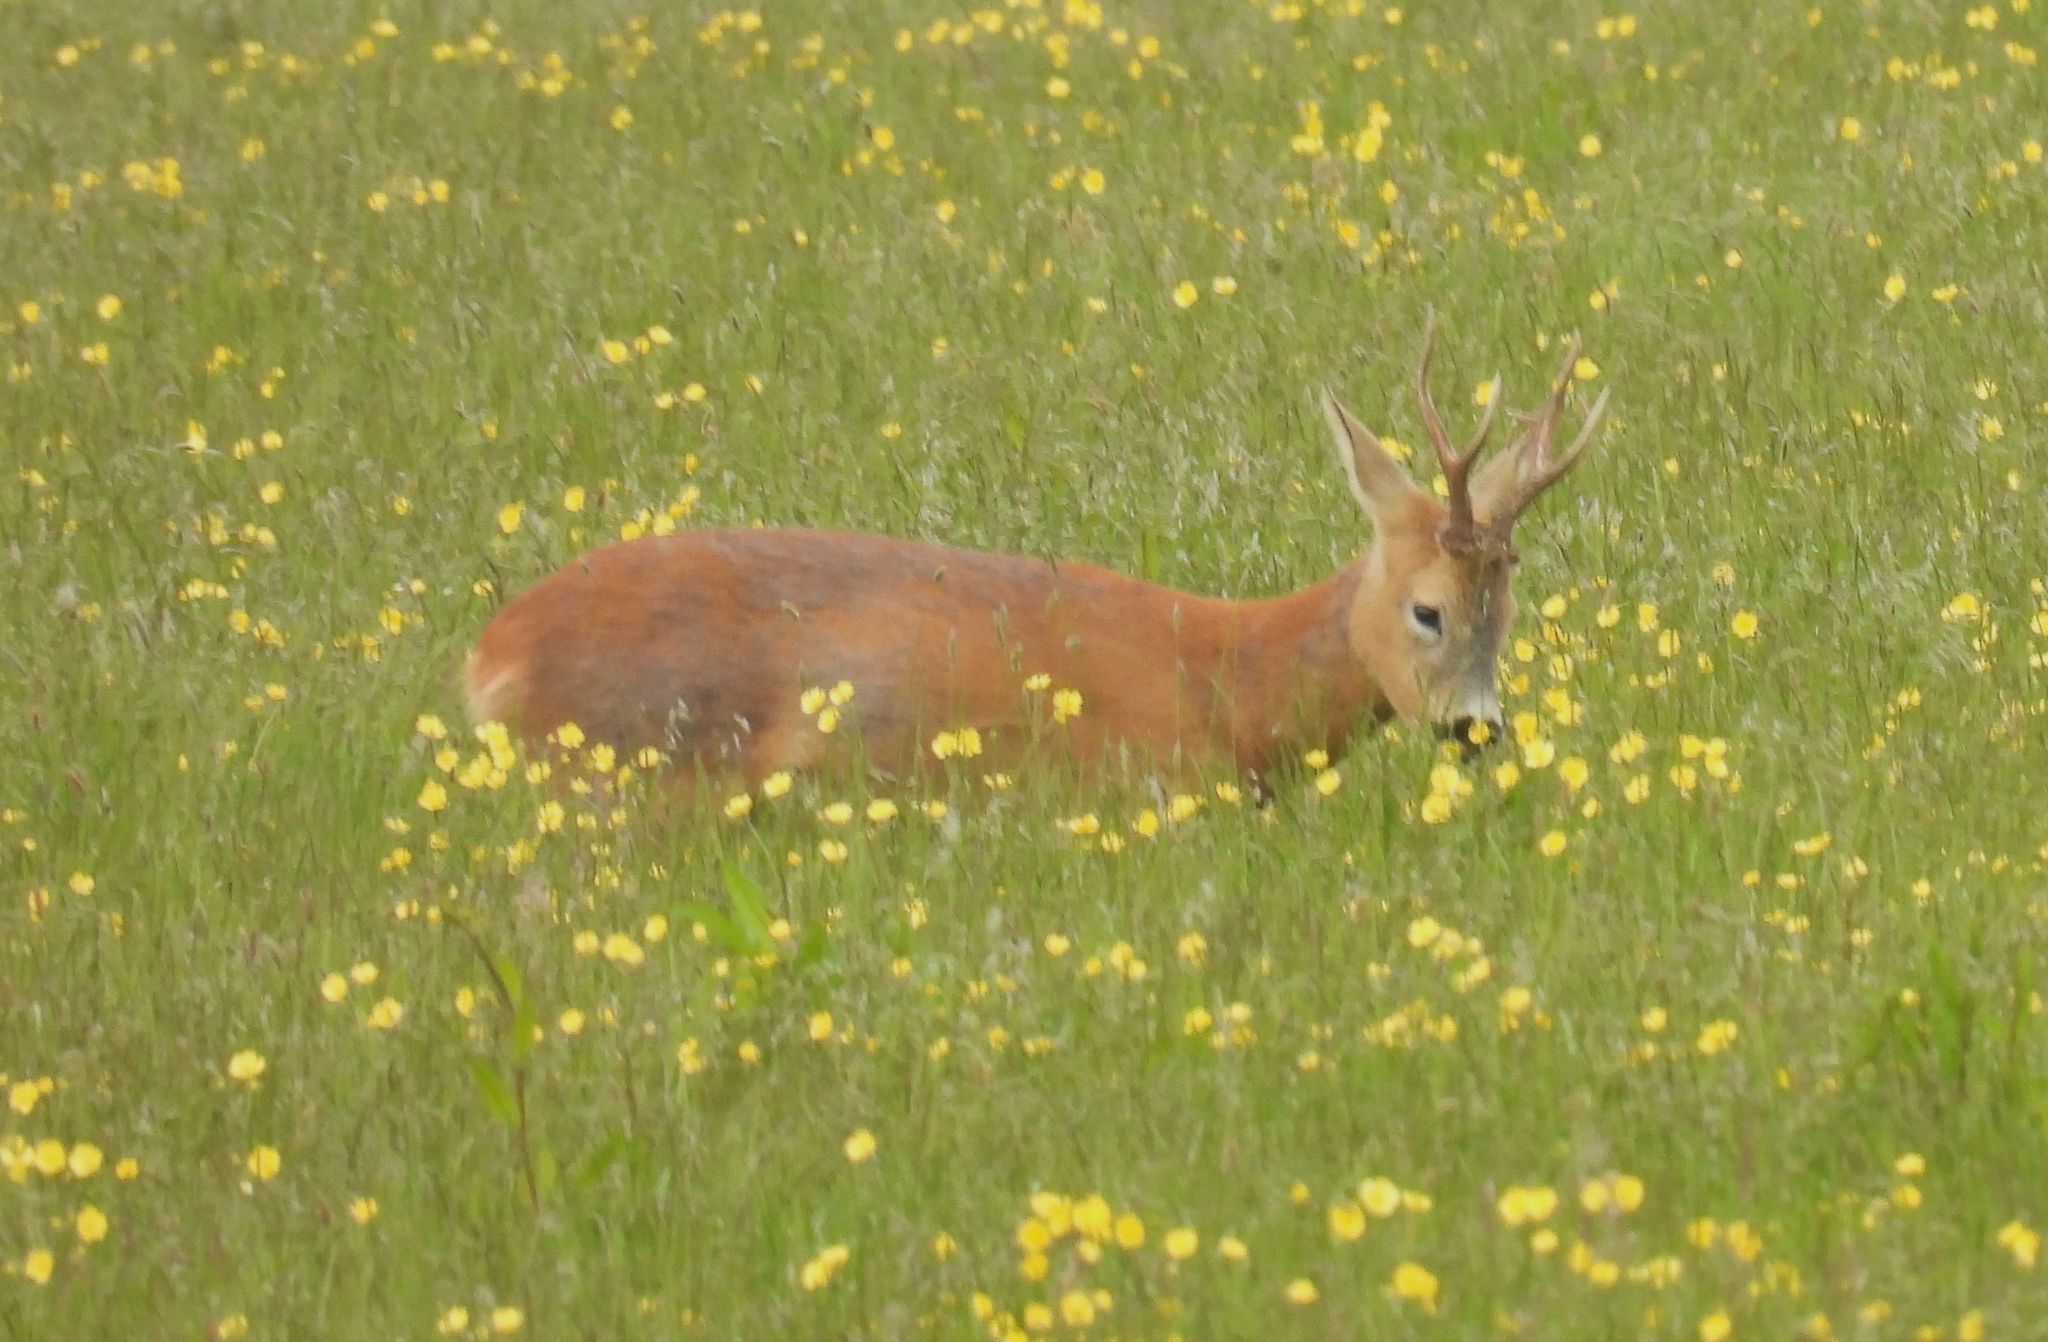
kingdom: Animalia
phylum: Chordata
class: Mammalia
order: Artiodactyla
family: Cervidae
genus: Capreolus
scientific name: Capreolus capreolus
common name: Western roe deer
